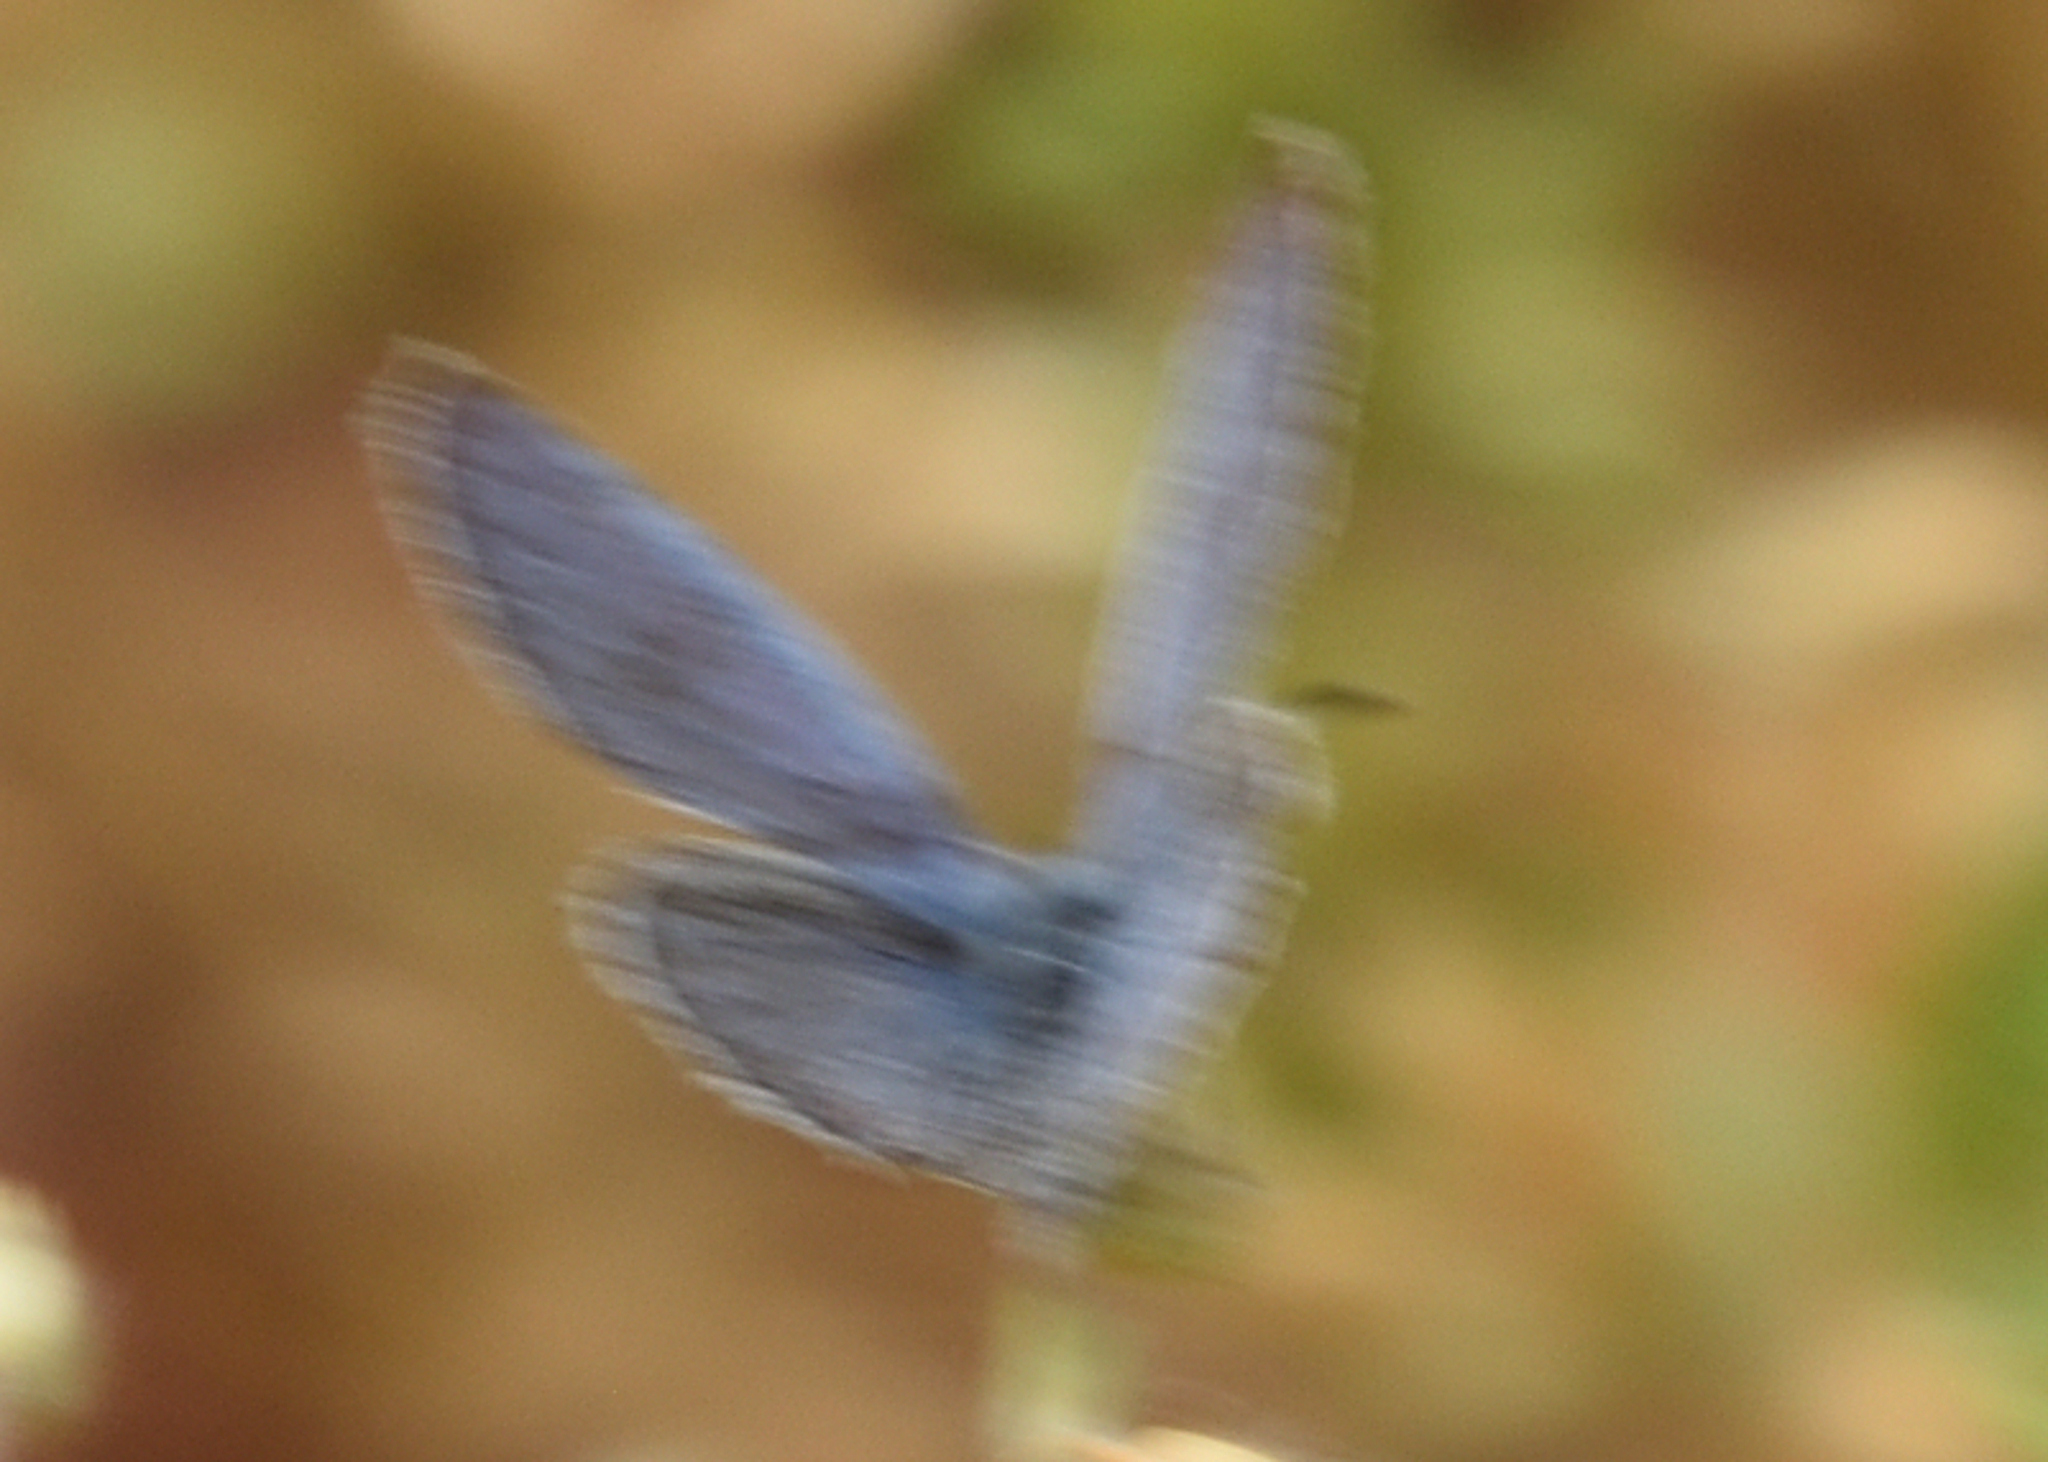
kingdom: Animalia
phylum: Arthropoda
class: Insecta
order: Lepidoptera
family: Lycaenidae
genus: Elkalyce
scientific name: Elkalyce comyntas
